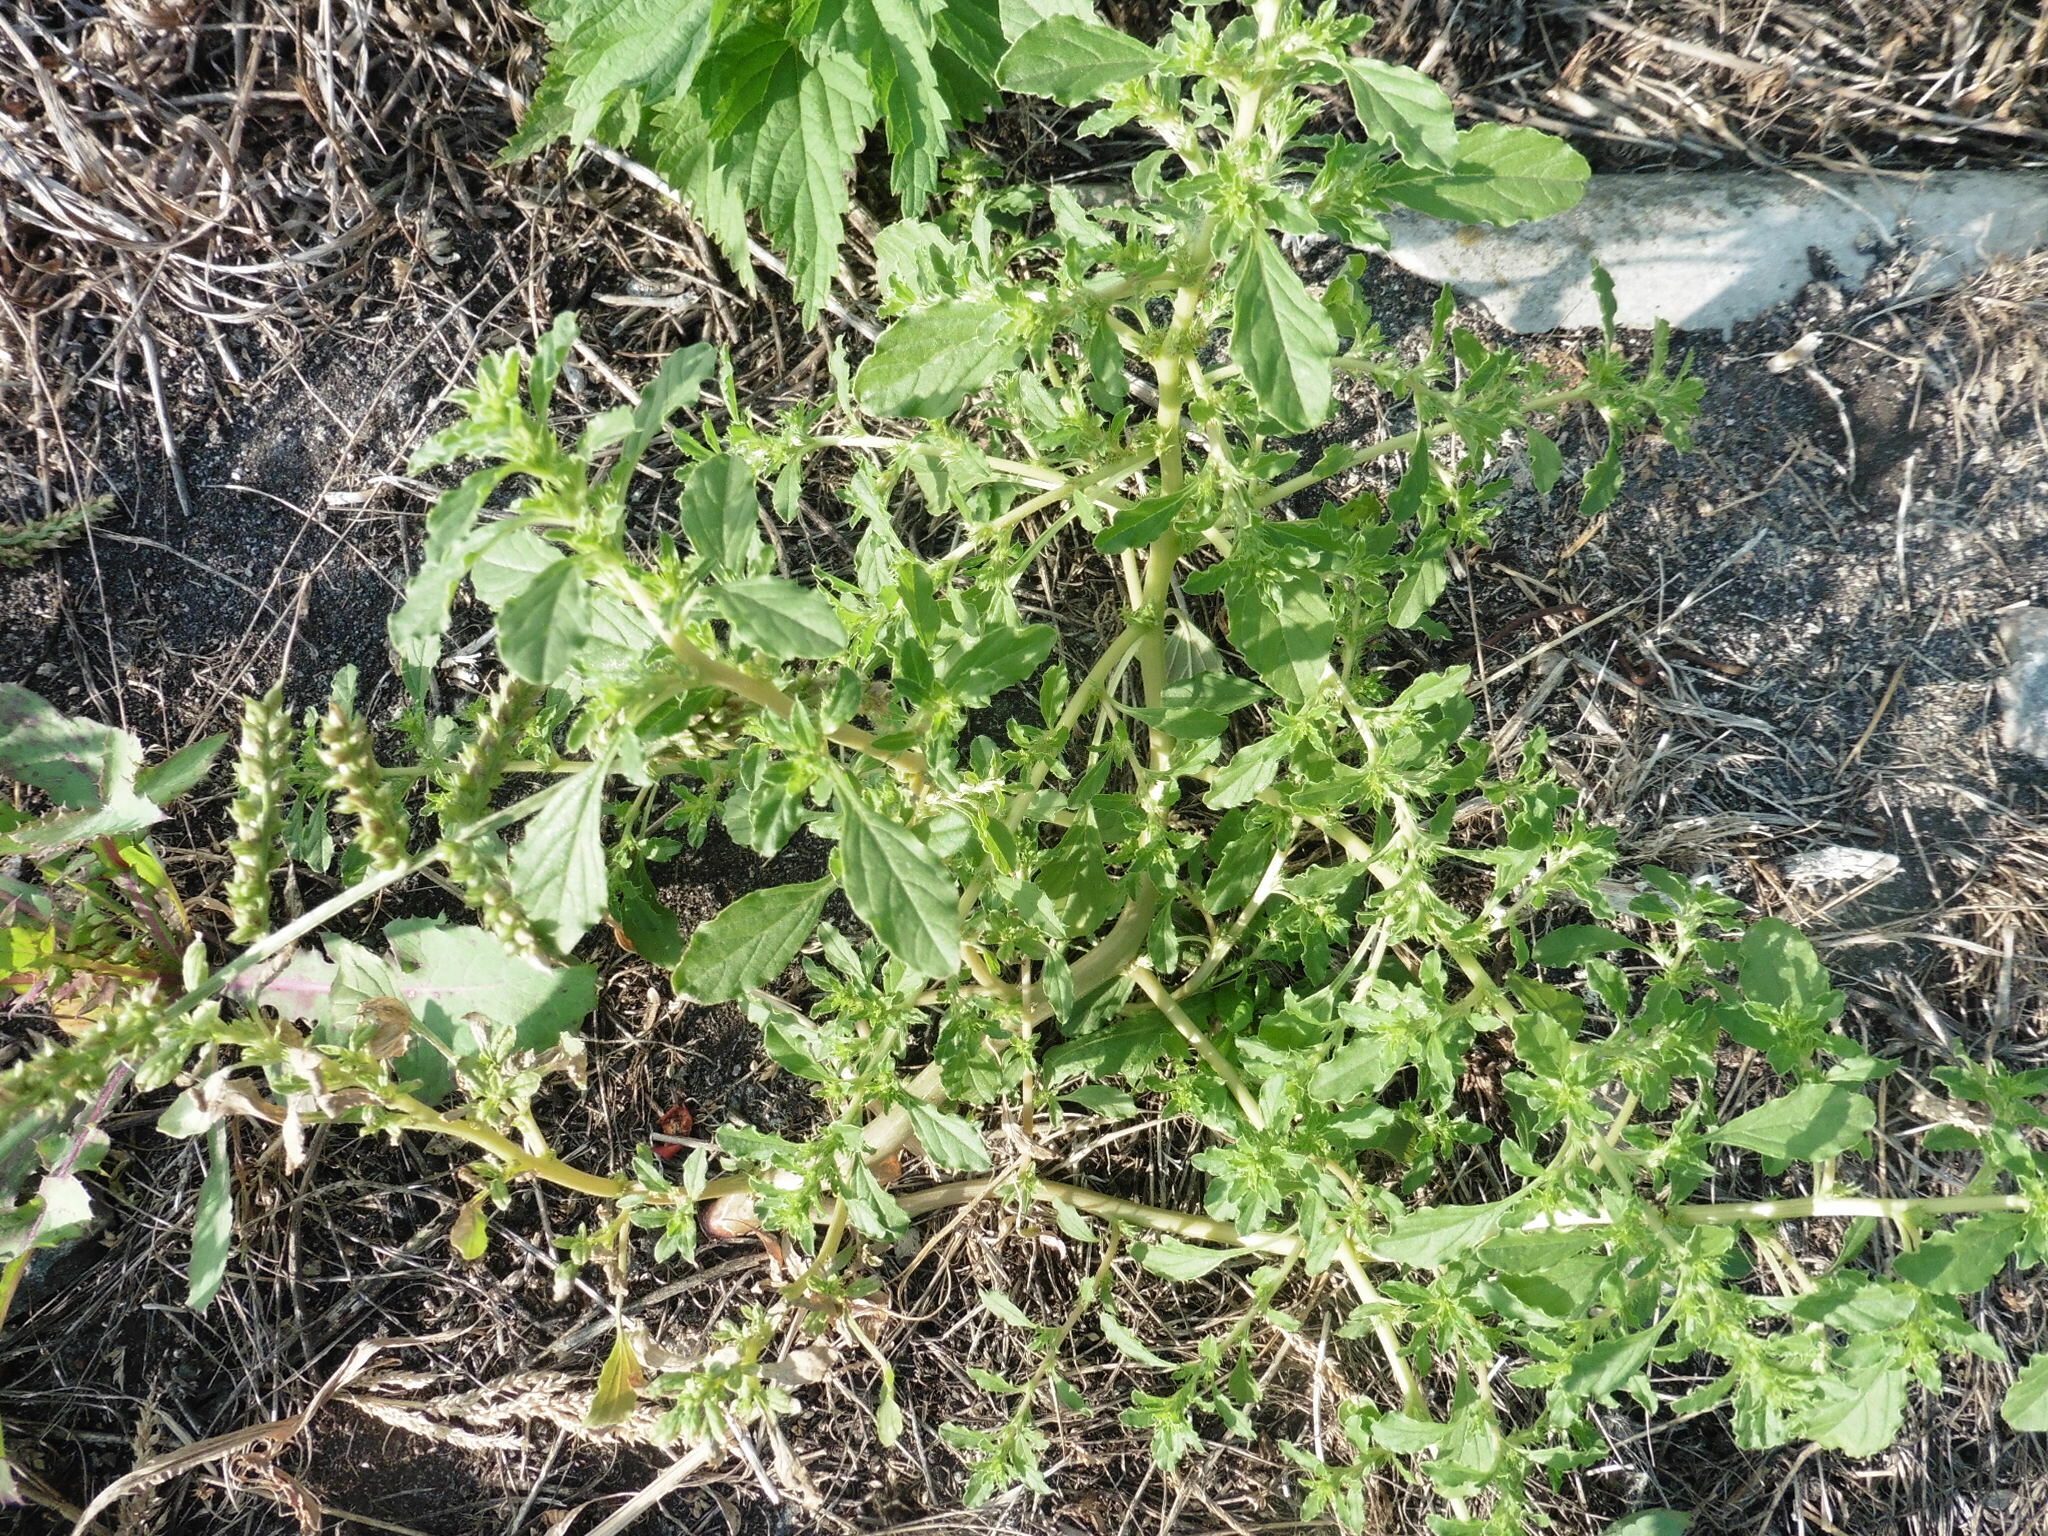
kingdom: Plantae
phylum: Tracheophyta
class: Magnoliopsida
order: Caryophyllales
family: Amaranthaceae
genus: Amaranthus
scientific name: Amaranthus albus
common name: White pigweed
